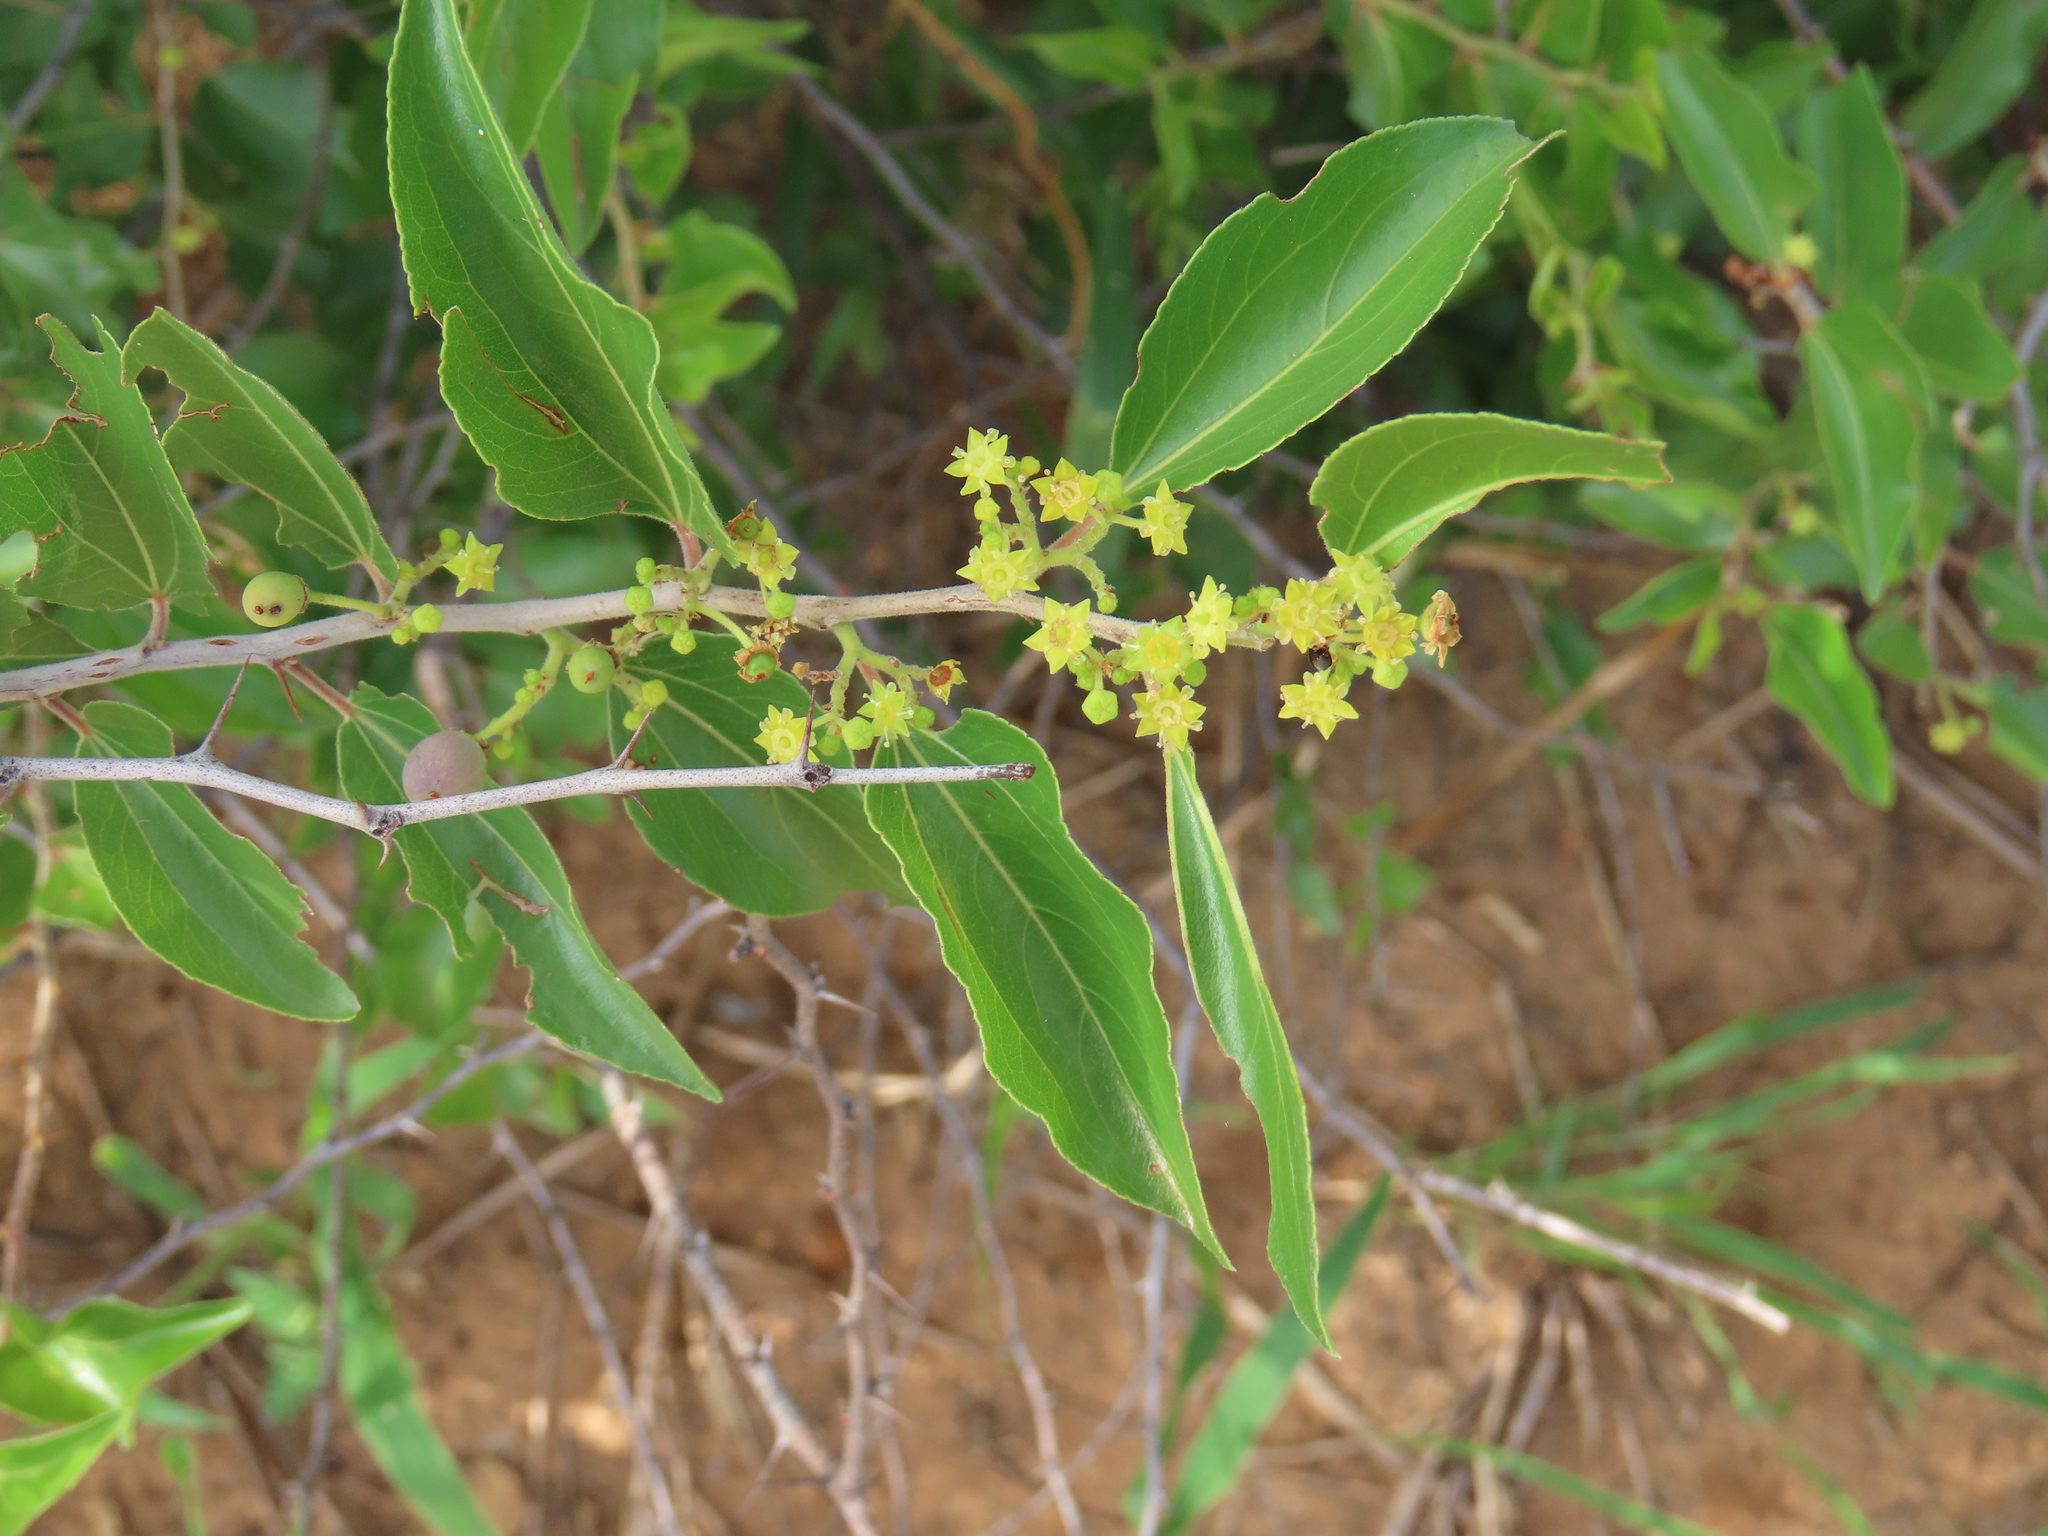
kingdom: Plantae
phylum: Tracheophyta
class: Magnoliopsida
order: Rosales
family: Rhamnaceae
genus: Ziziphus
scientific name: Ziziphus mucronata
